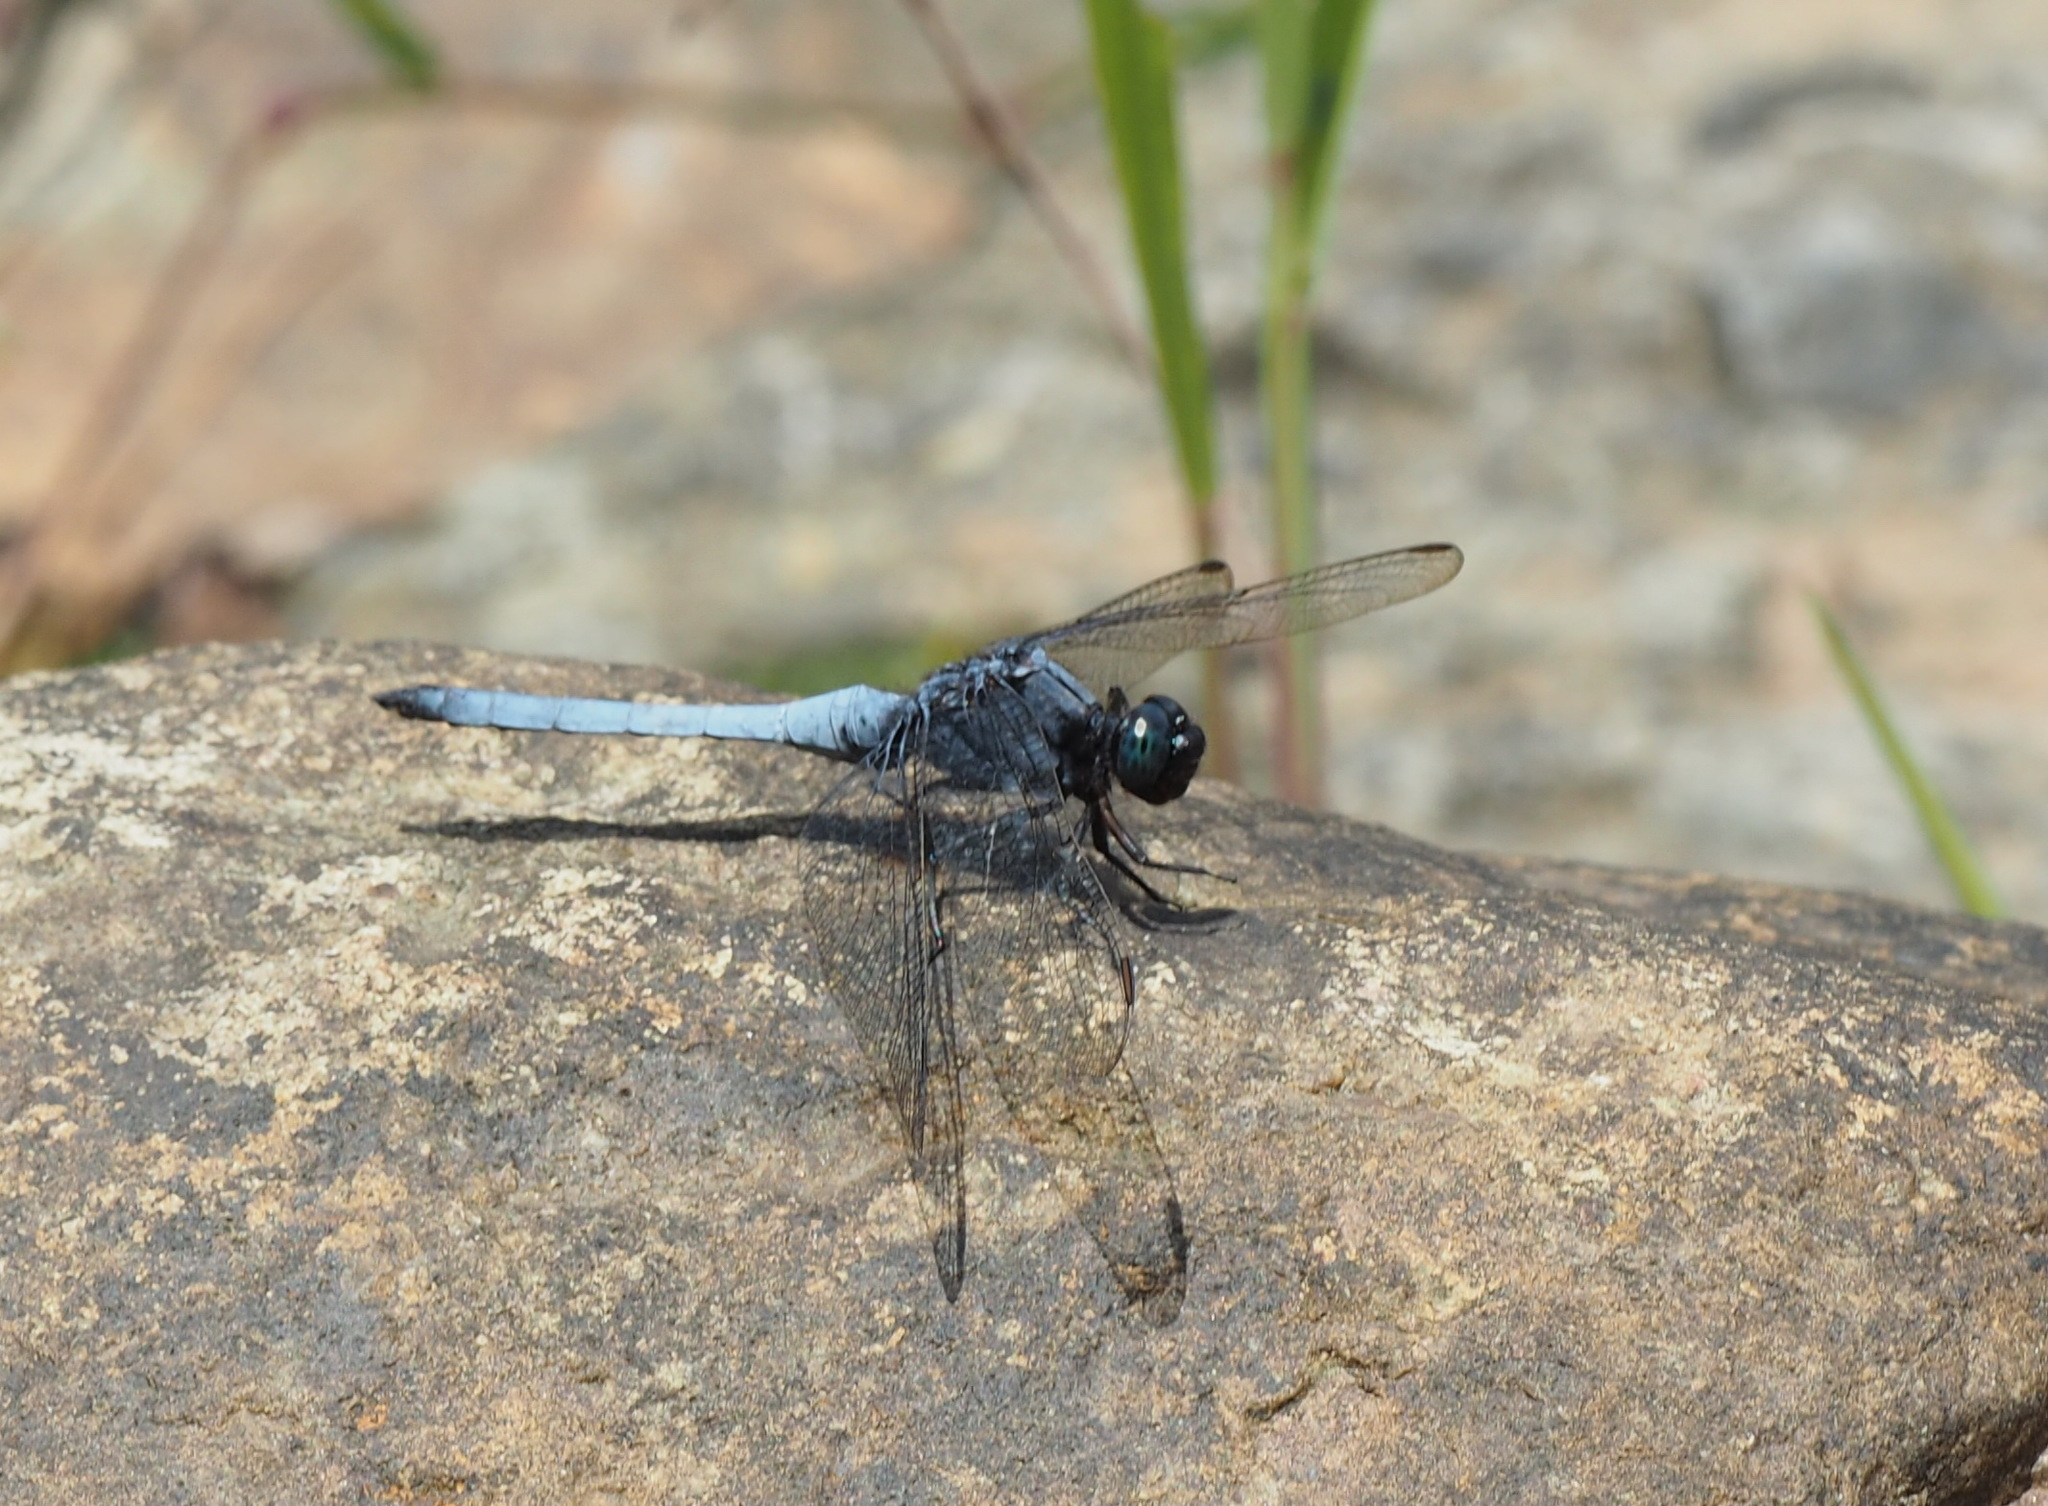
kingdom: Animalia
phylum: Arthropoda
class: Insecta
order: Odonata
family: Libellulidae
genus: Orthetrum
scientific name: Orthetrum glaucum
